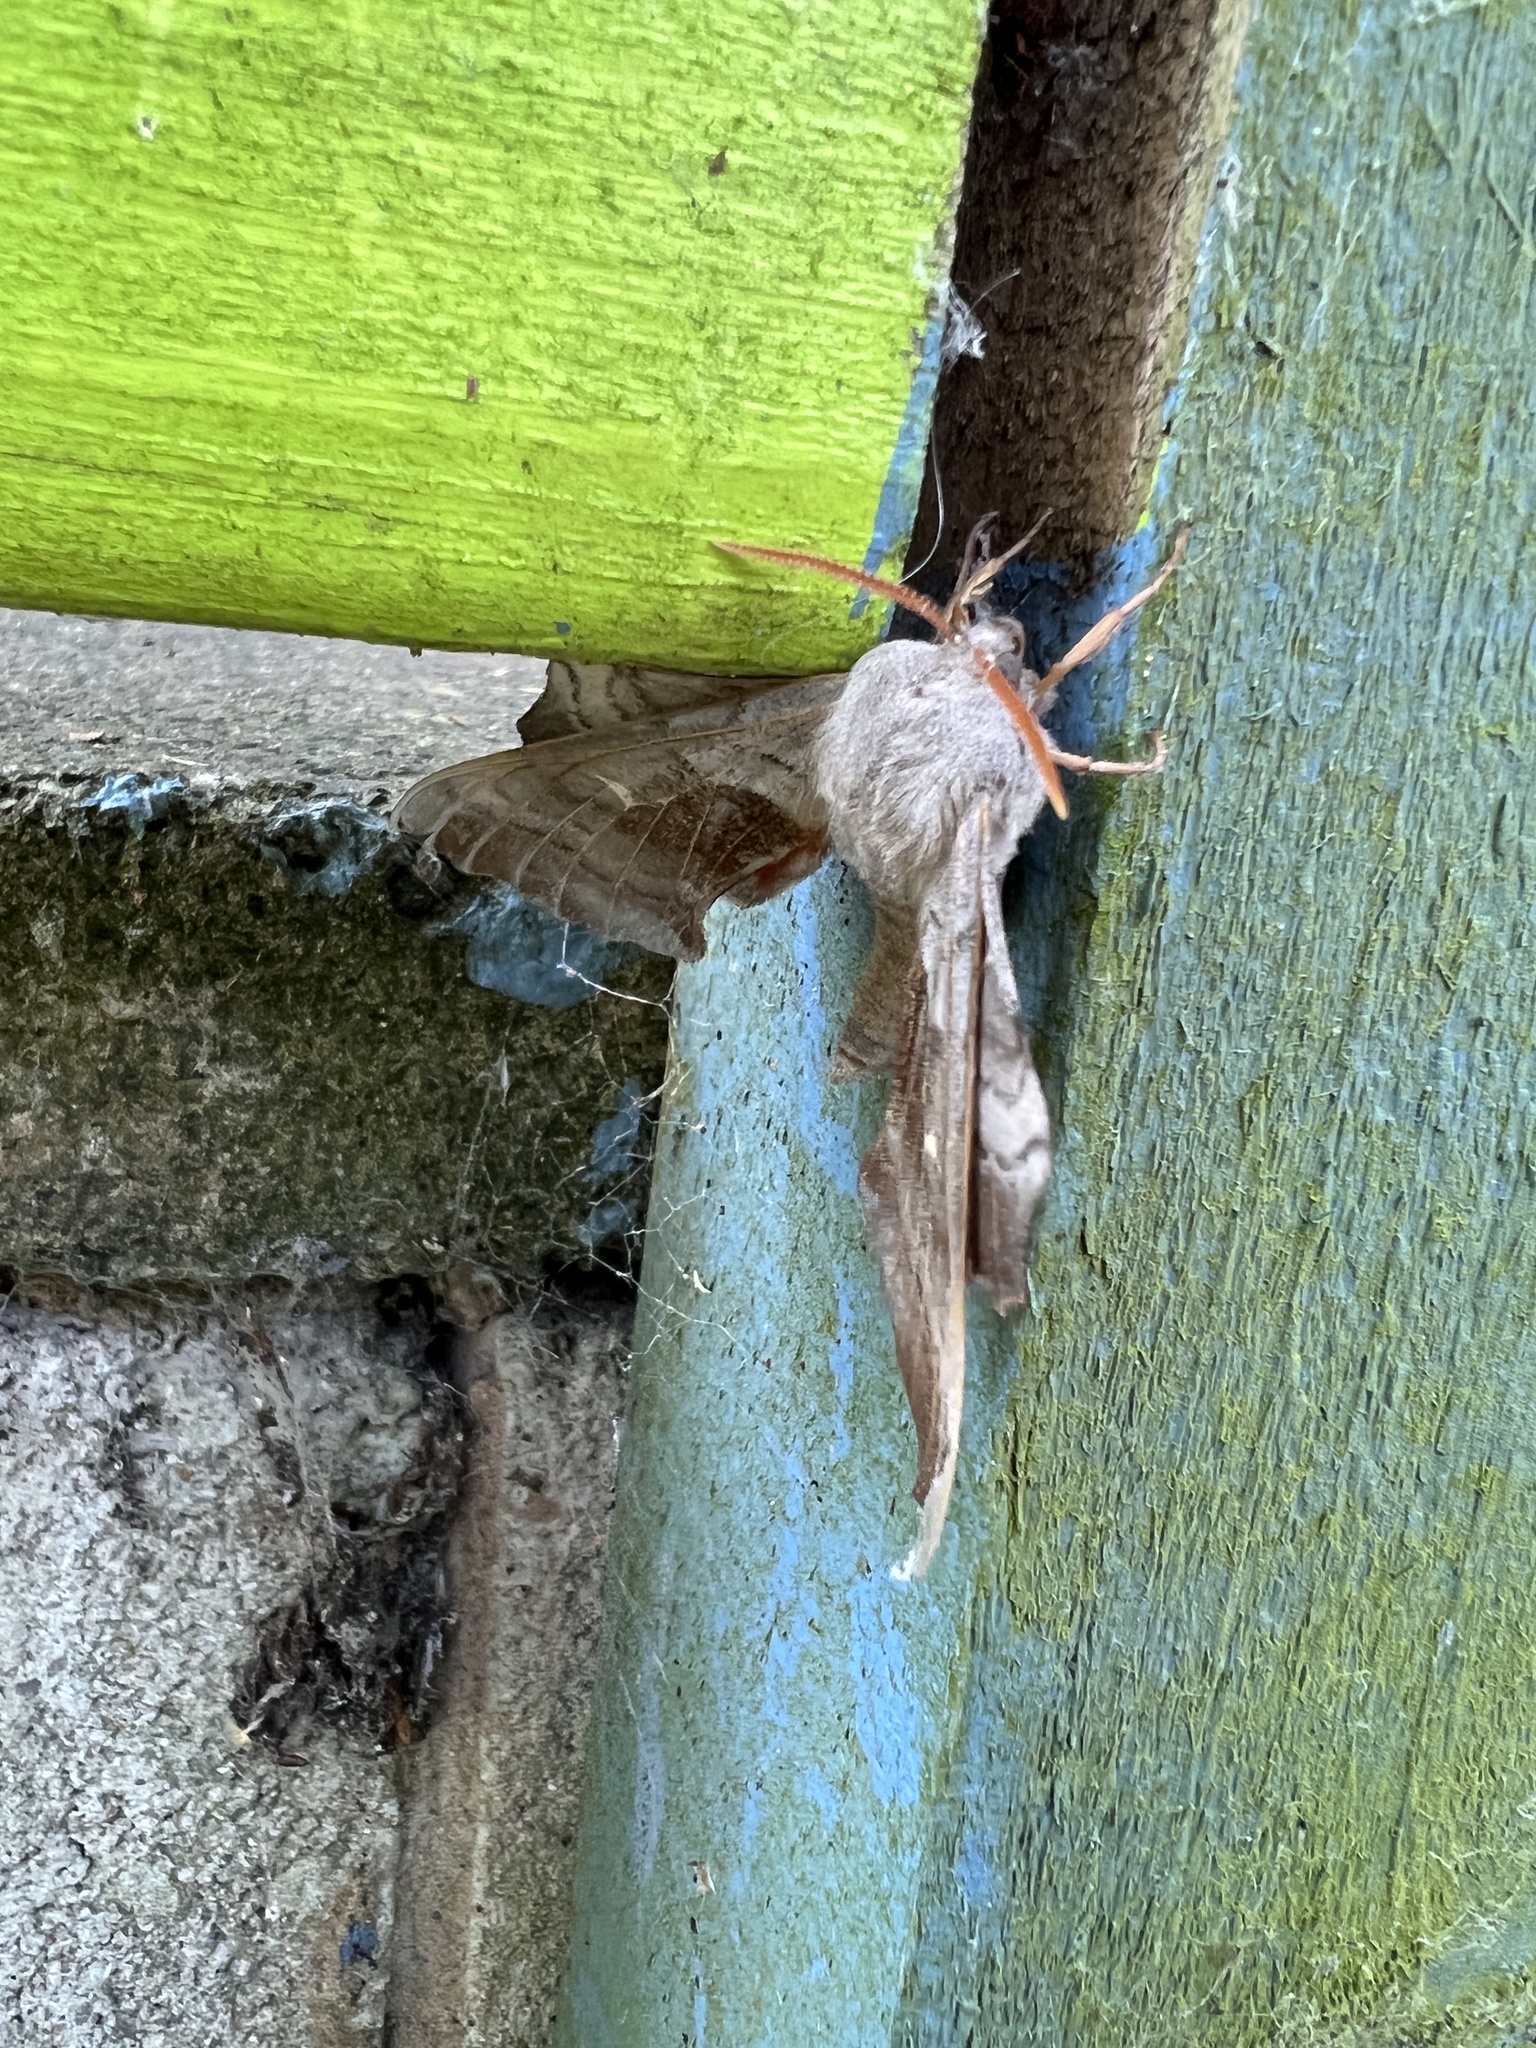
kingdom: Animalia
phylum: Arthropoda
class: Insecta
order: Lepidoptera
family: Sphingidae
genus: Laothoe
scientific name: Laothoe populi
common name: Poplar hawk-moth
